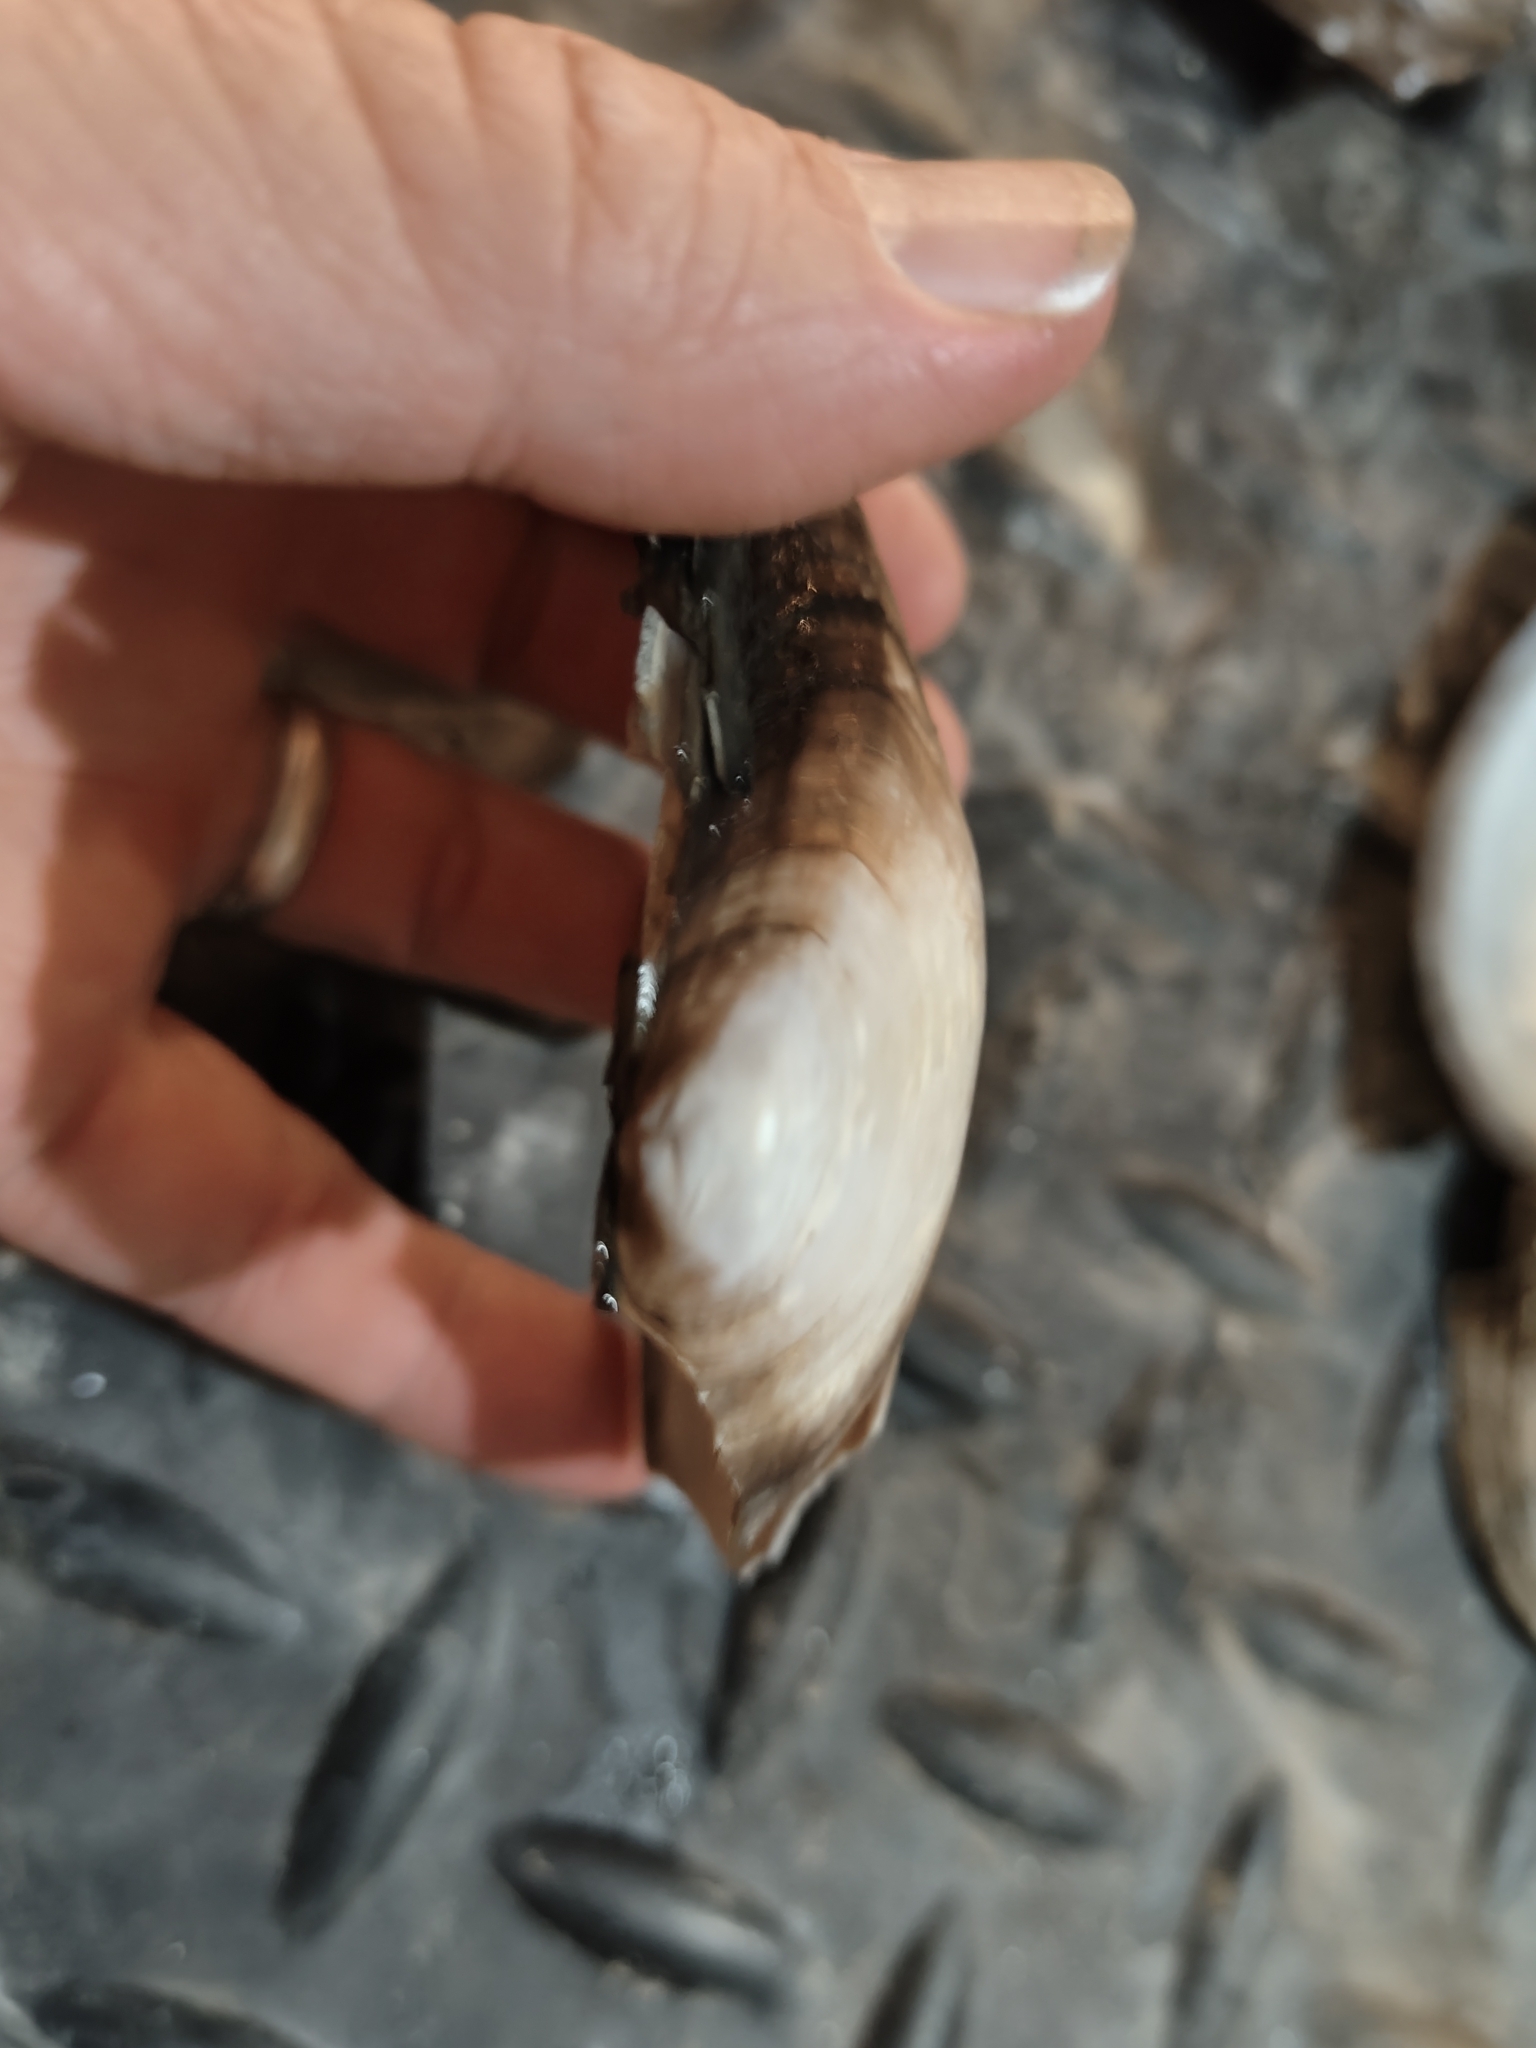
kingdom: Animalia
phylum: Mollusca
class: Bivalvia
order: Unionida
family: Unionidae
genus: Pyganodon
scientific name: Pyganodon grandis
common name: Giant floater
